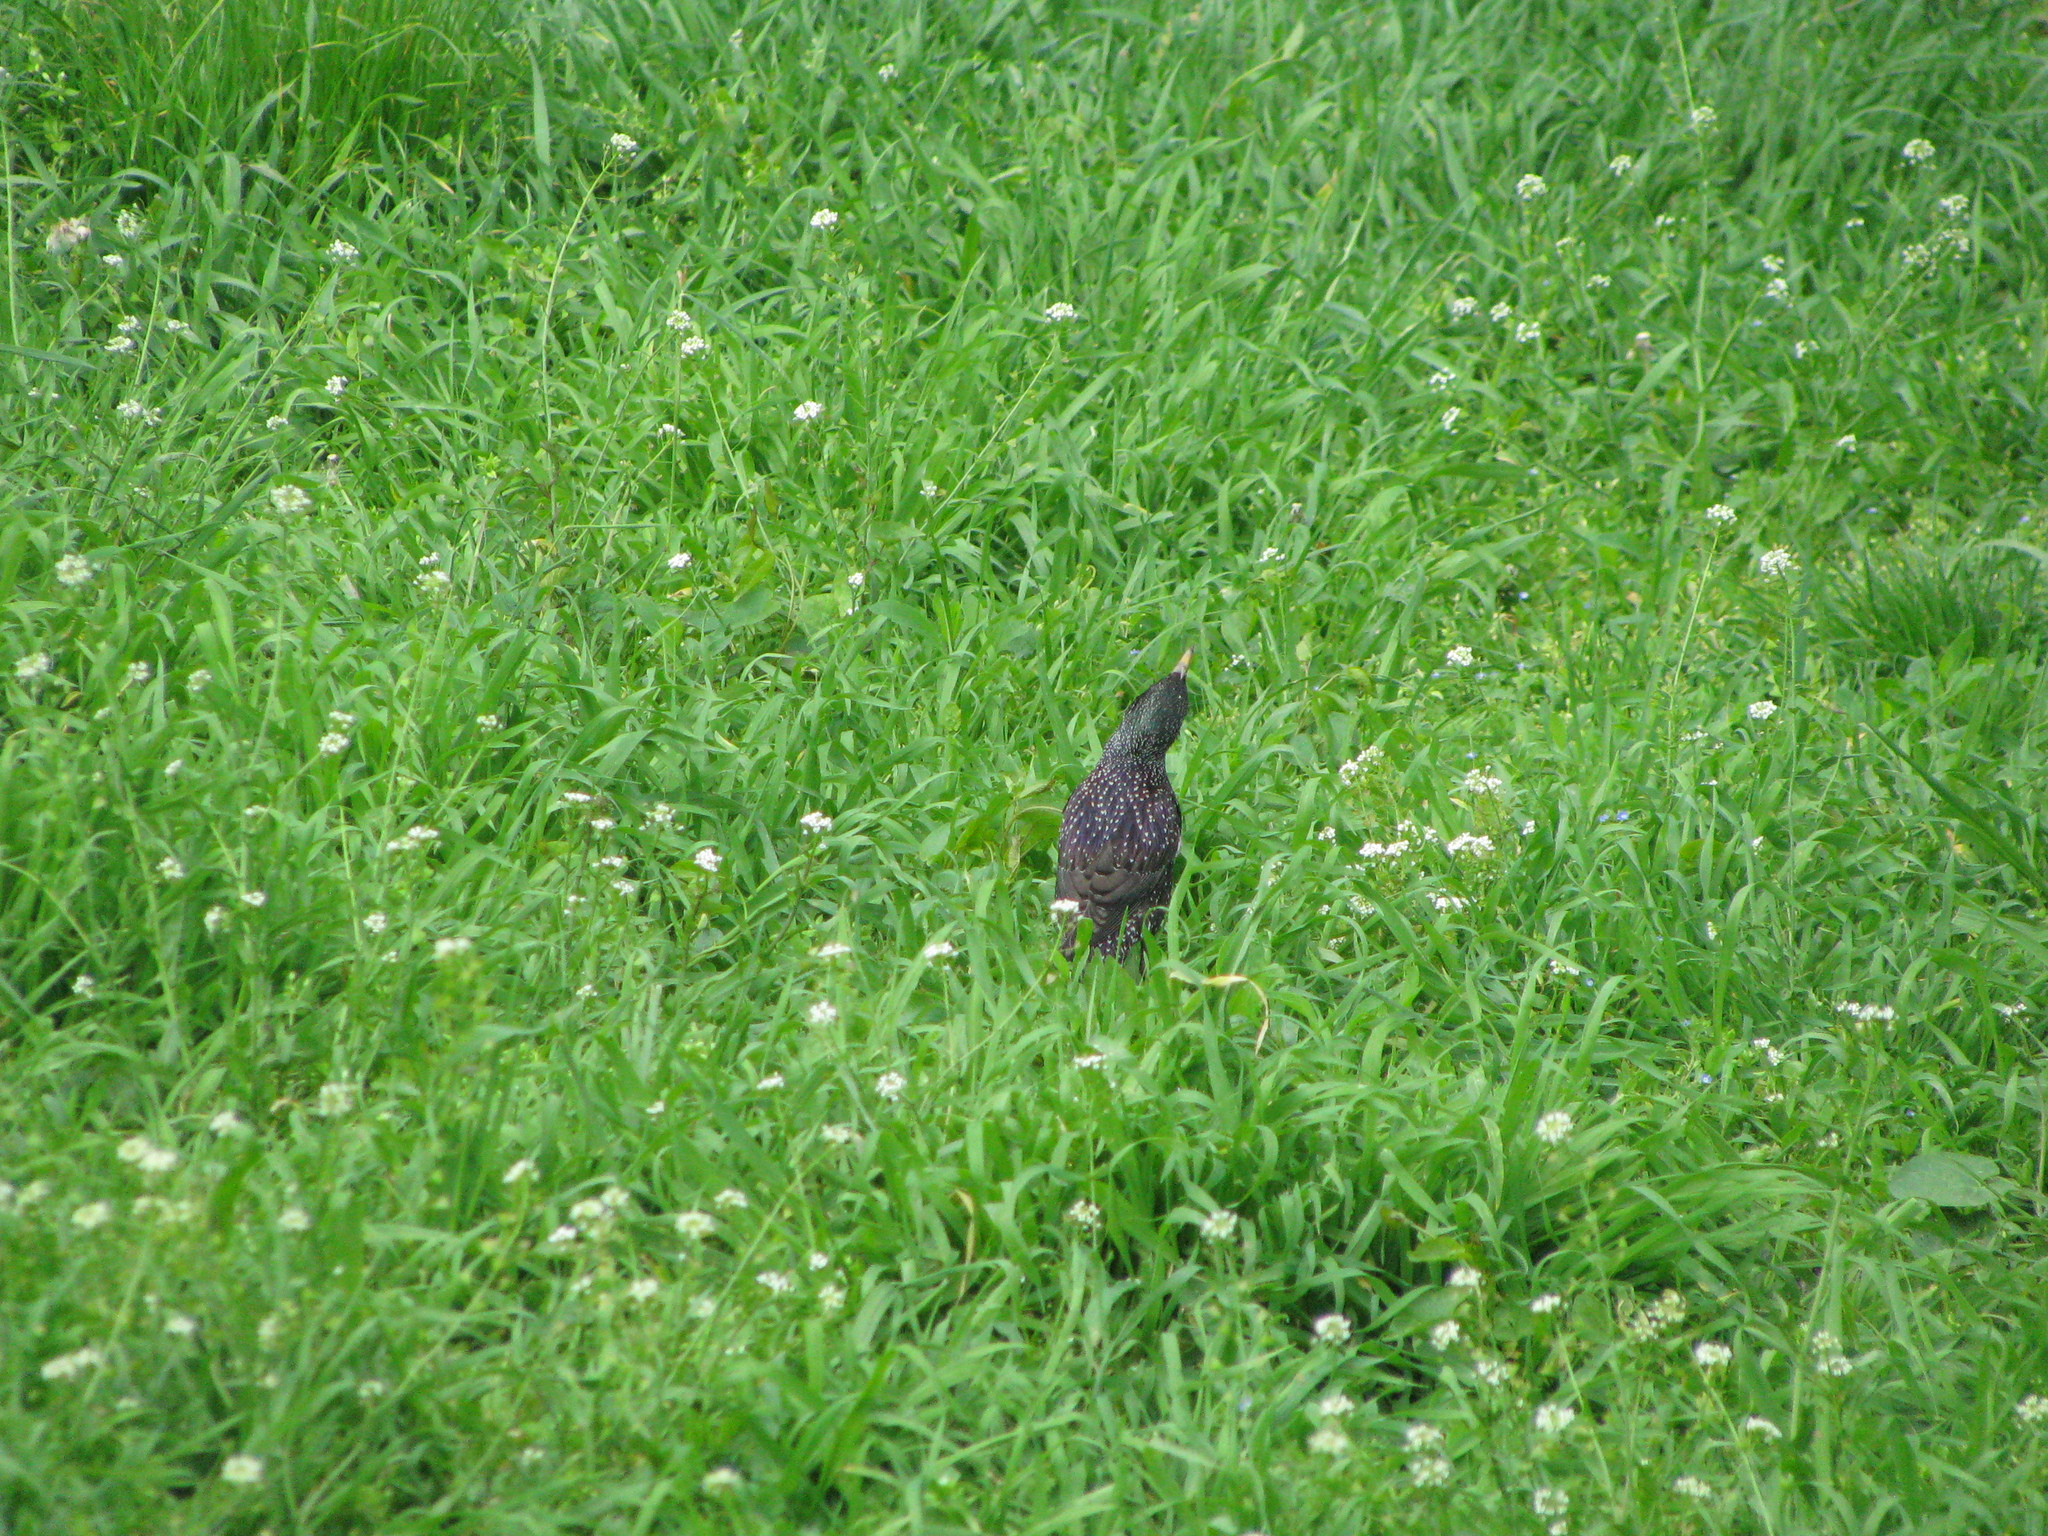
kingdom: Animalia
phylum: Chordata
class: Aves
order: Passeriformes
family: Sturnidae
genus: Sturnus
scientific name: Sturnus vulgaris
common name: Common starling
